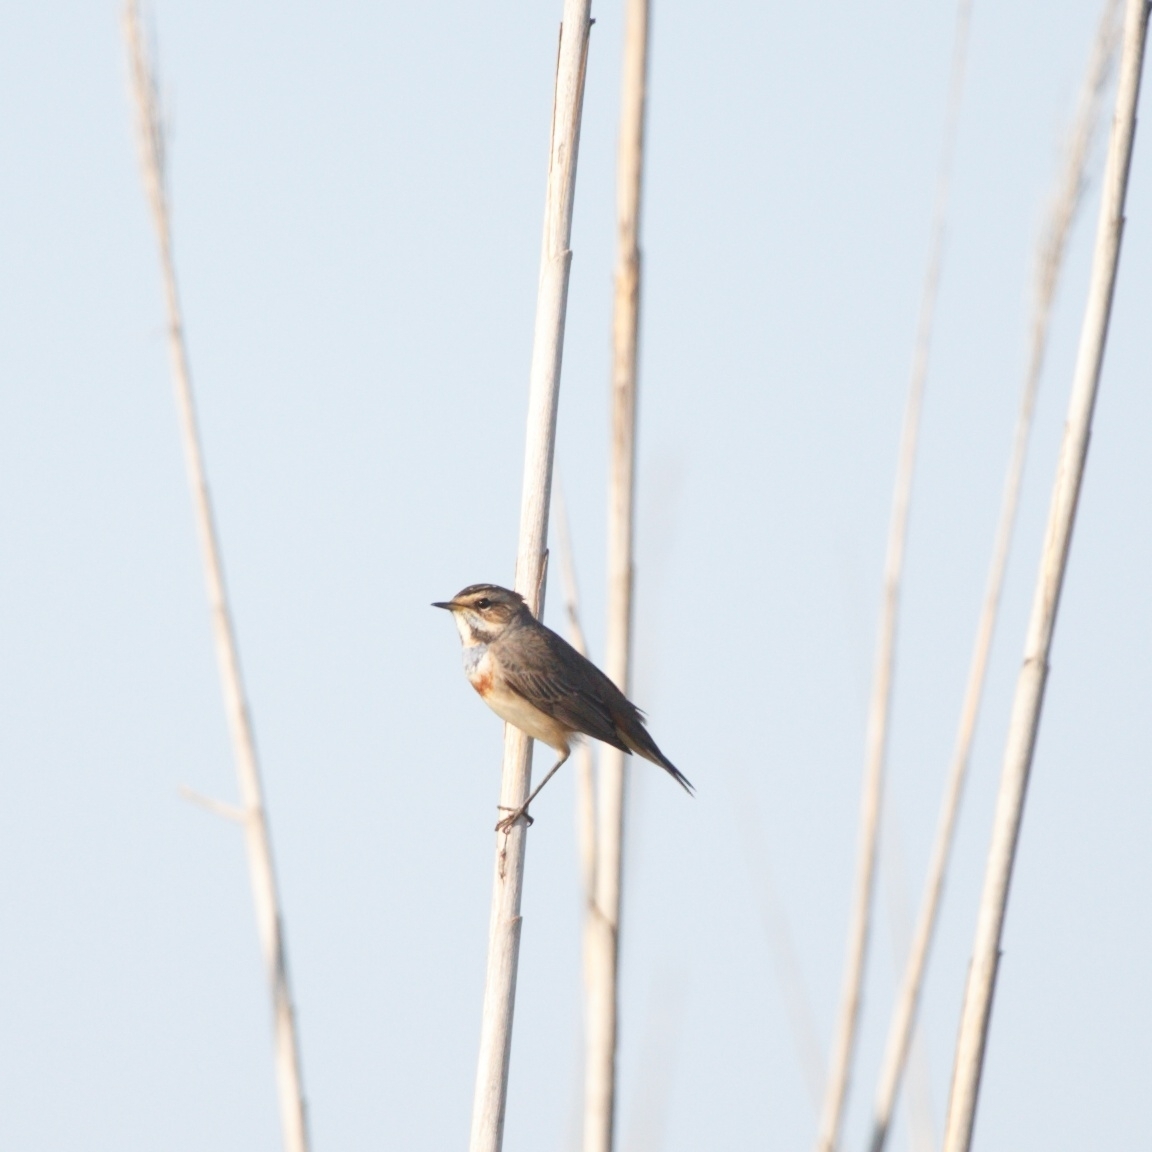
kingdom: Animalia
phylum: Chordata
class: Aves
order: Passeriformes
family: Muscicapidae
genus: Luscinia
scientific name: Luscinia svecica
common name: Bluethroat
